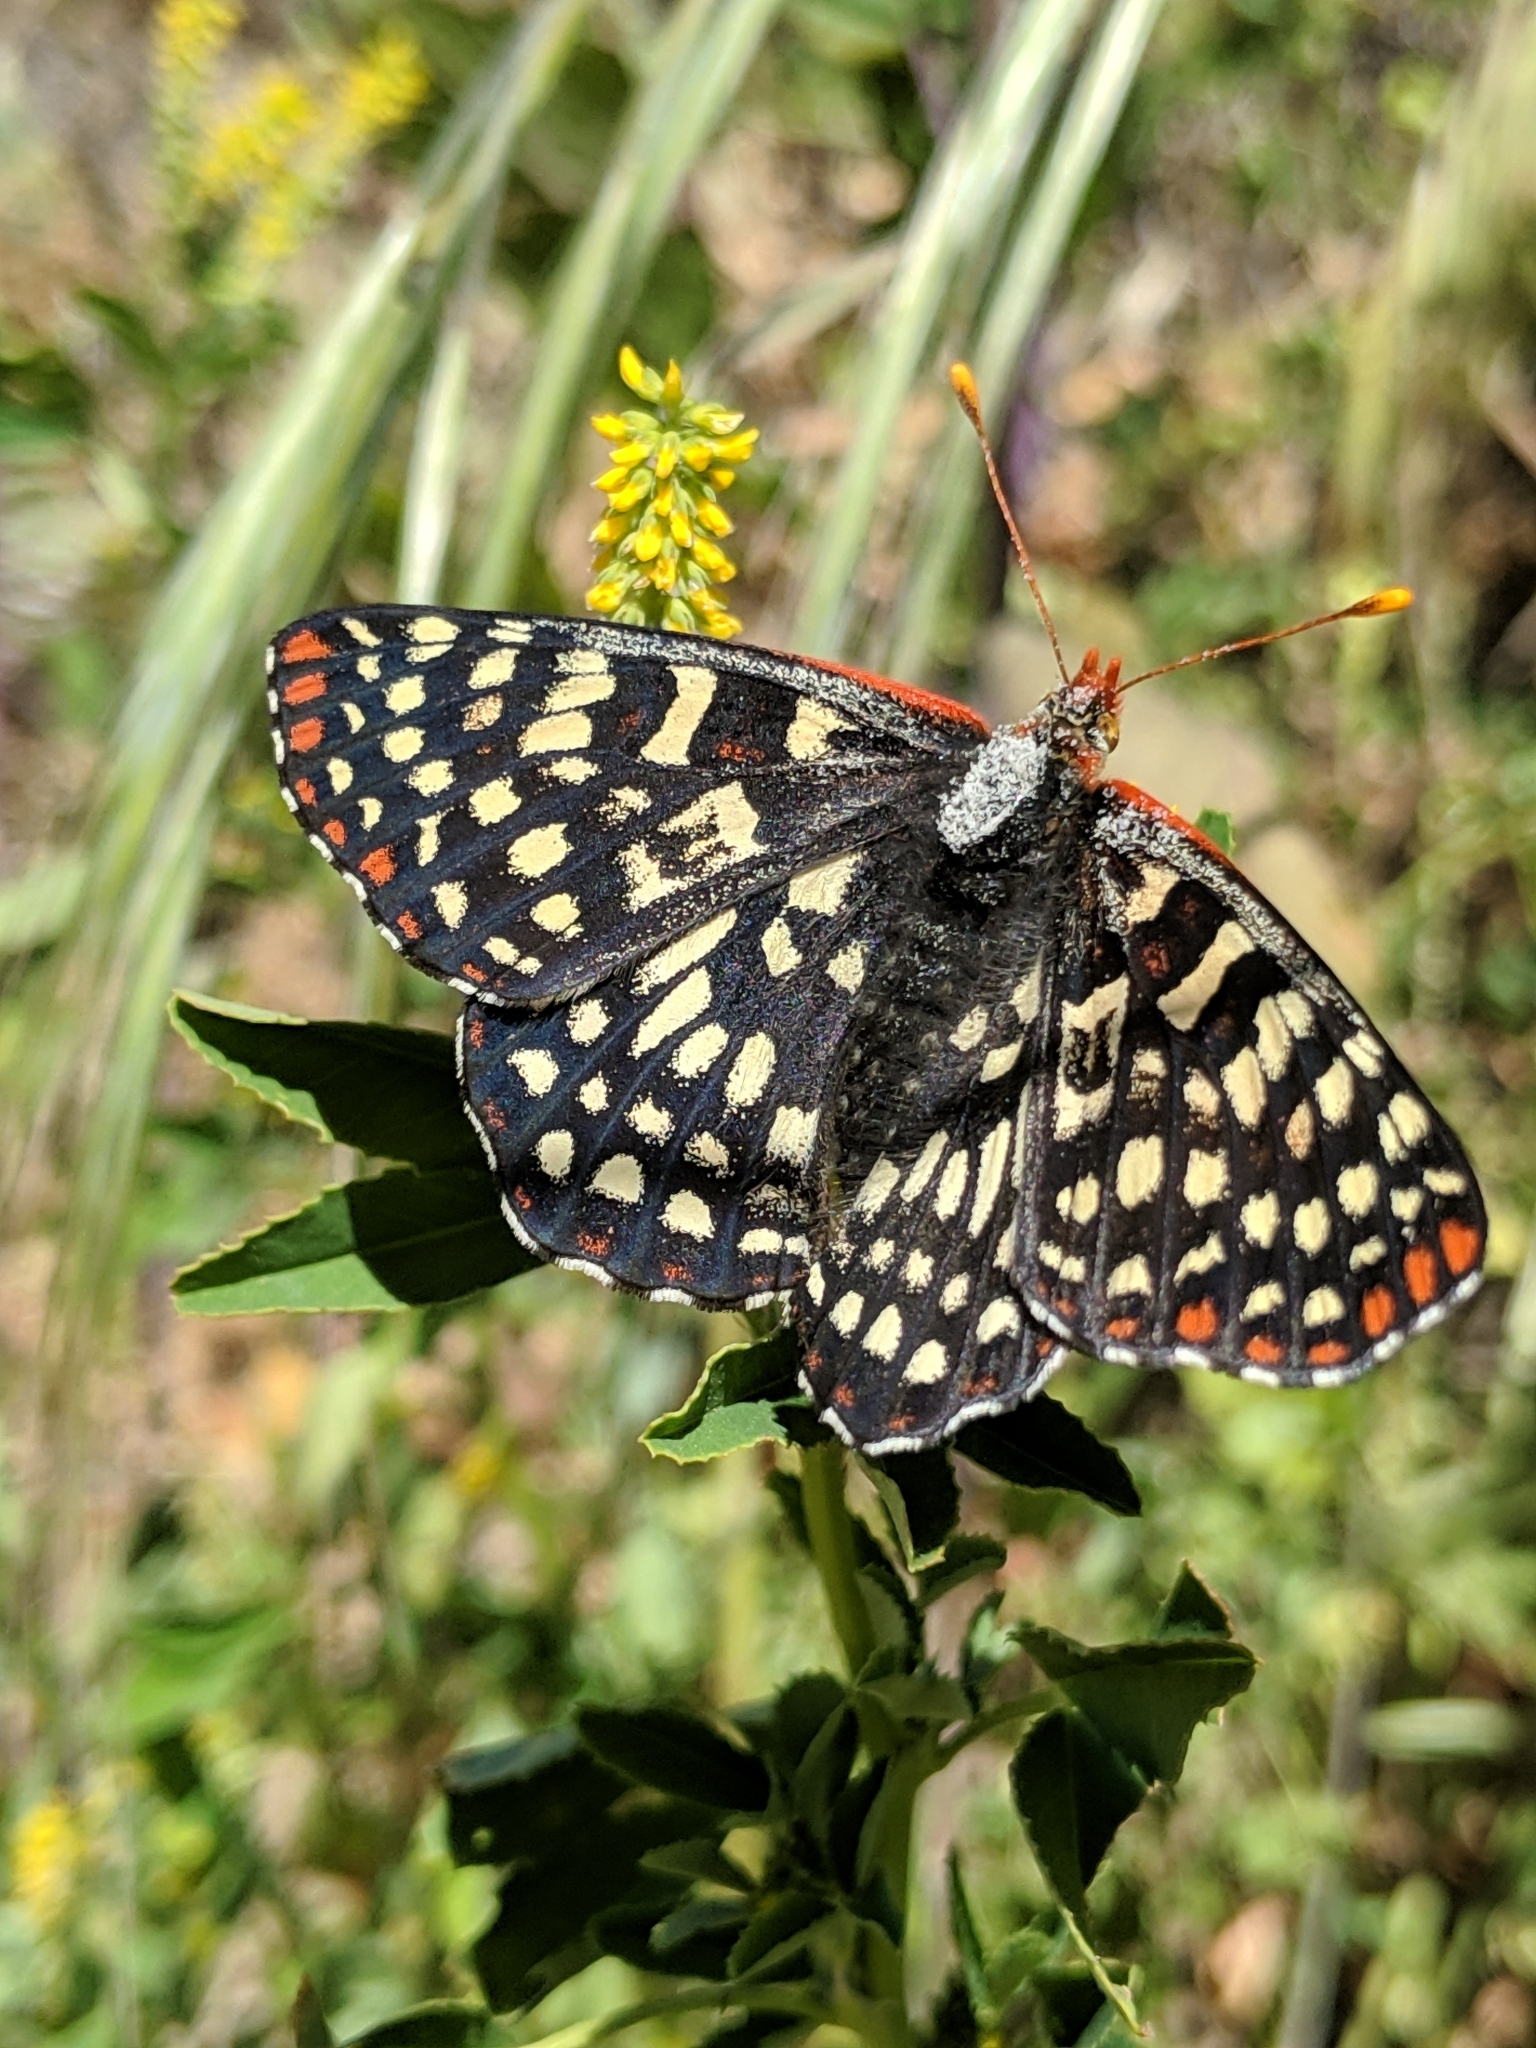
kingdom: Animalia
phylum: Arthropoda
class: Insecta
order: Lepidoptera
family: Nymphalidae
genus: Occidryas
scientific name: Occidryas chalcedona
